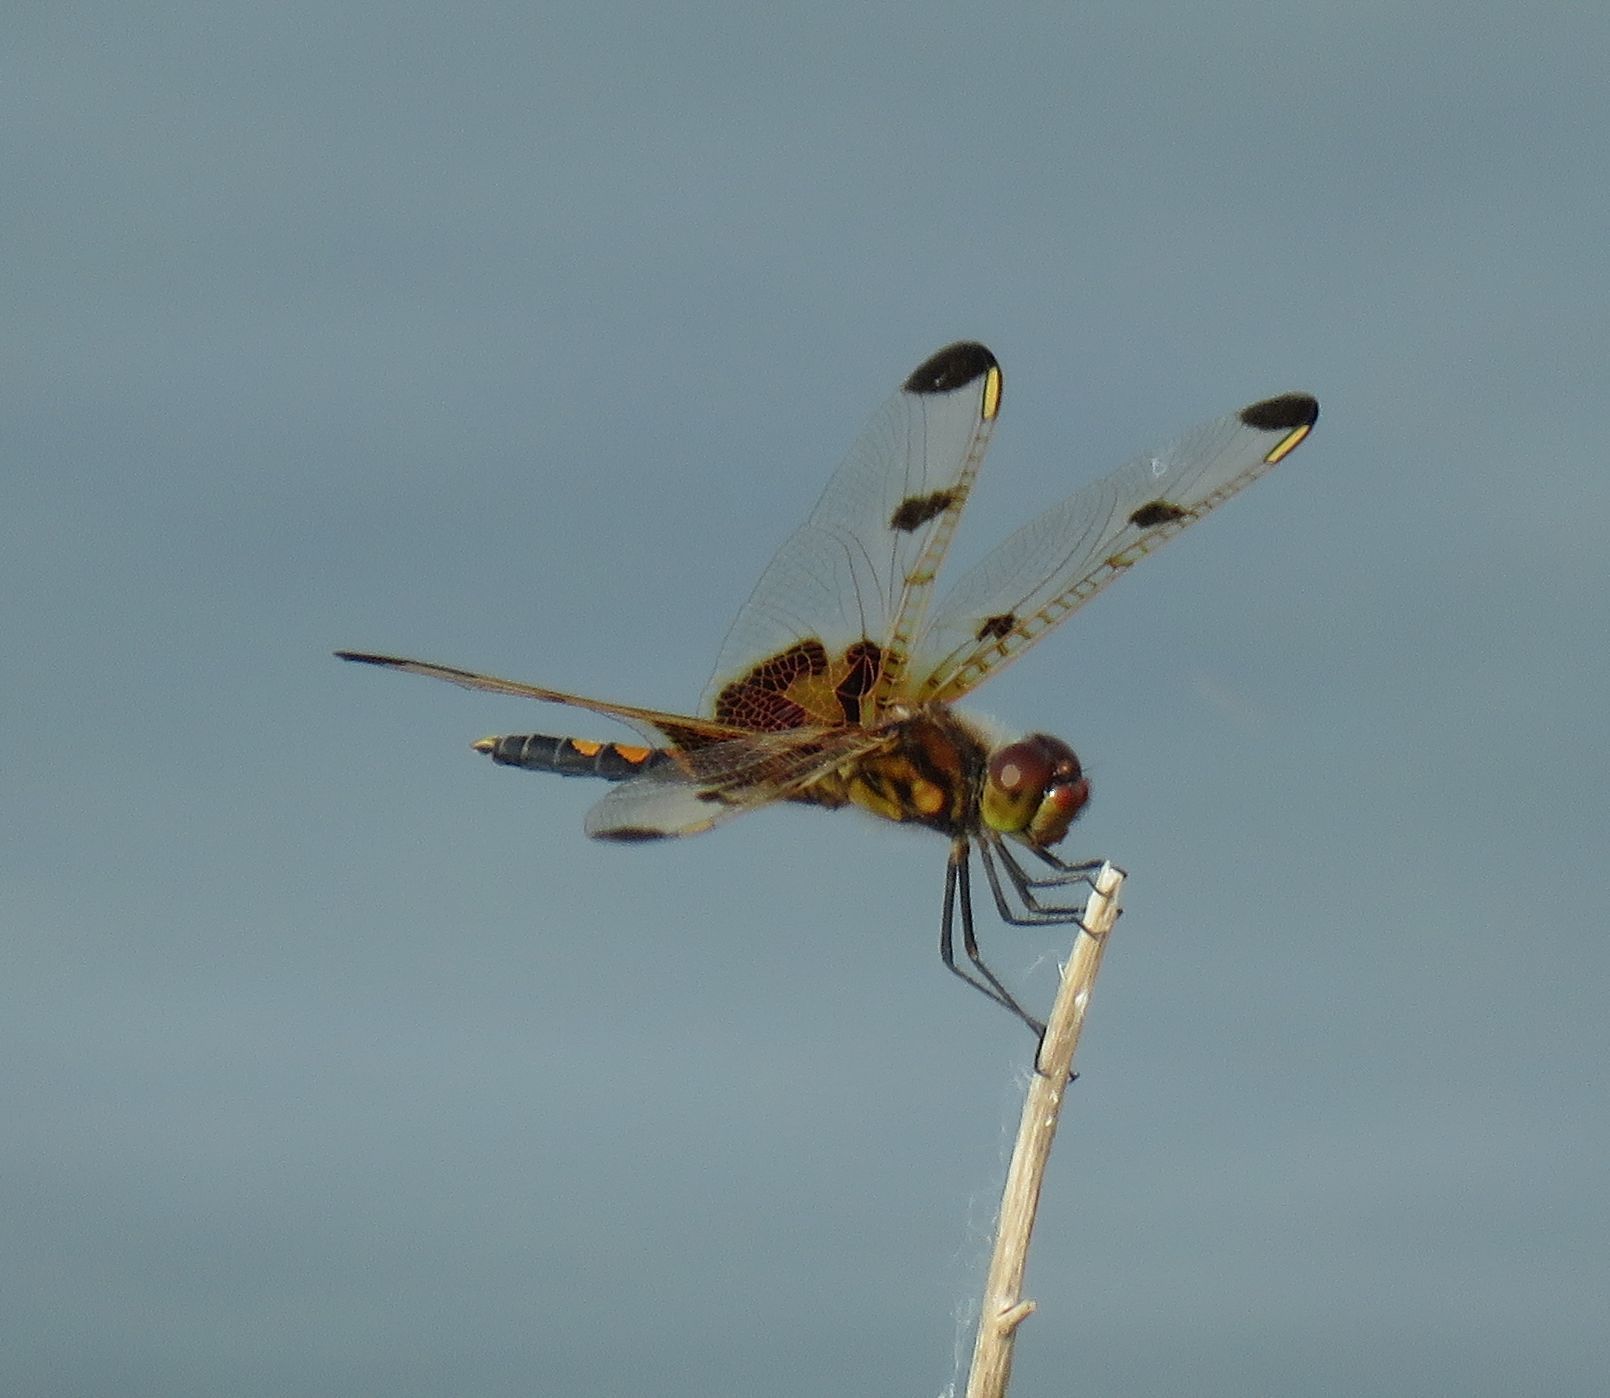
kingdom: Animalia
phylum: Arthropoda
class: Insecta
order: Odonata
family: Libellulidae
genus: Celithemis
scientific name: Celithemis elisa
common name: Calico pennant
